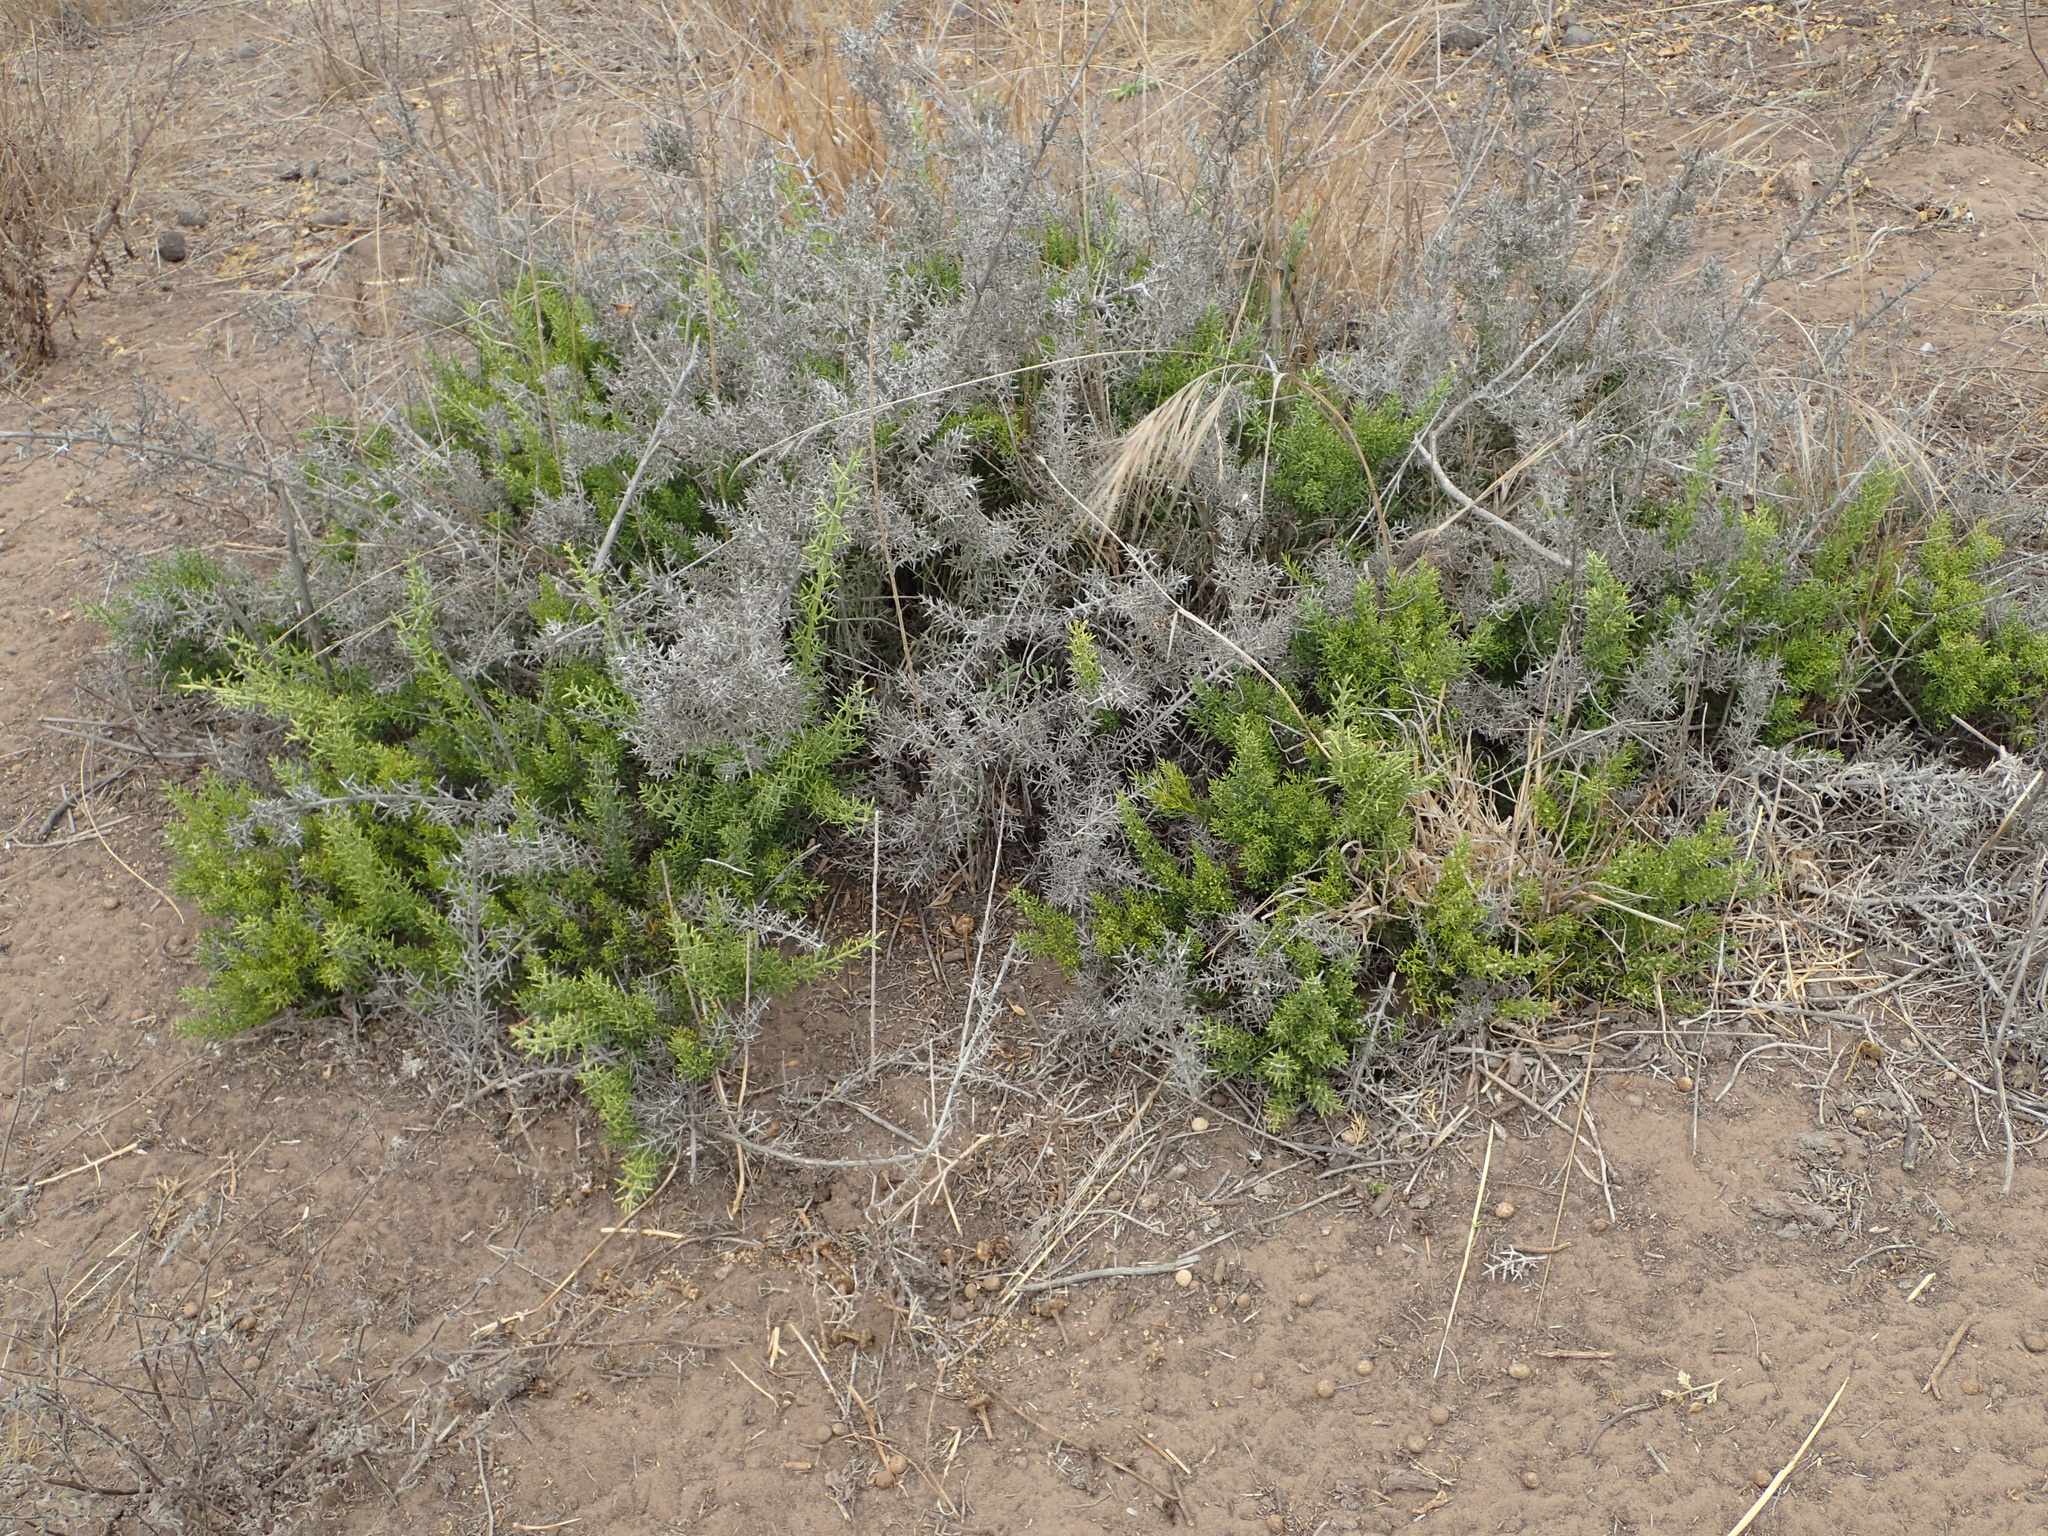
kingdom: Plantae
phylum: Tracheophyta
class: Magnoliopsida
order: Rosales
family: Rhamnaceae
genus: Colletia
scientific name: Colletia hystrix
